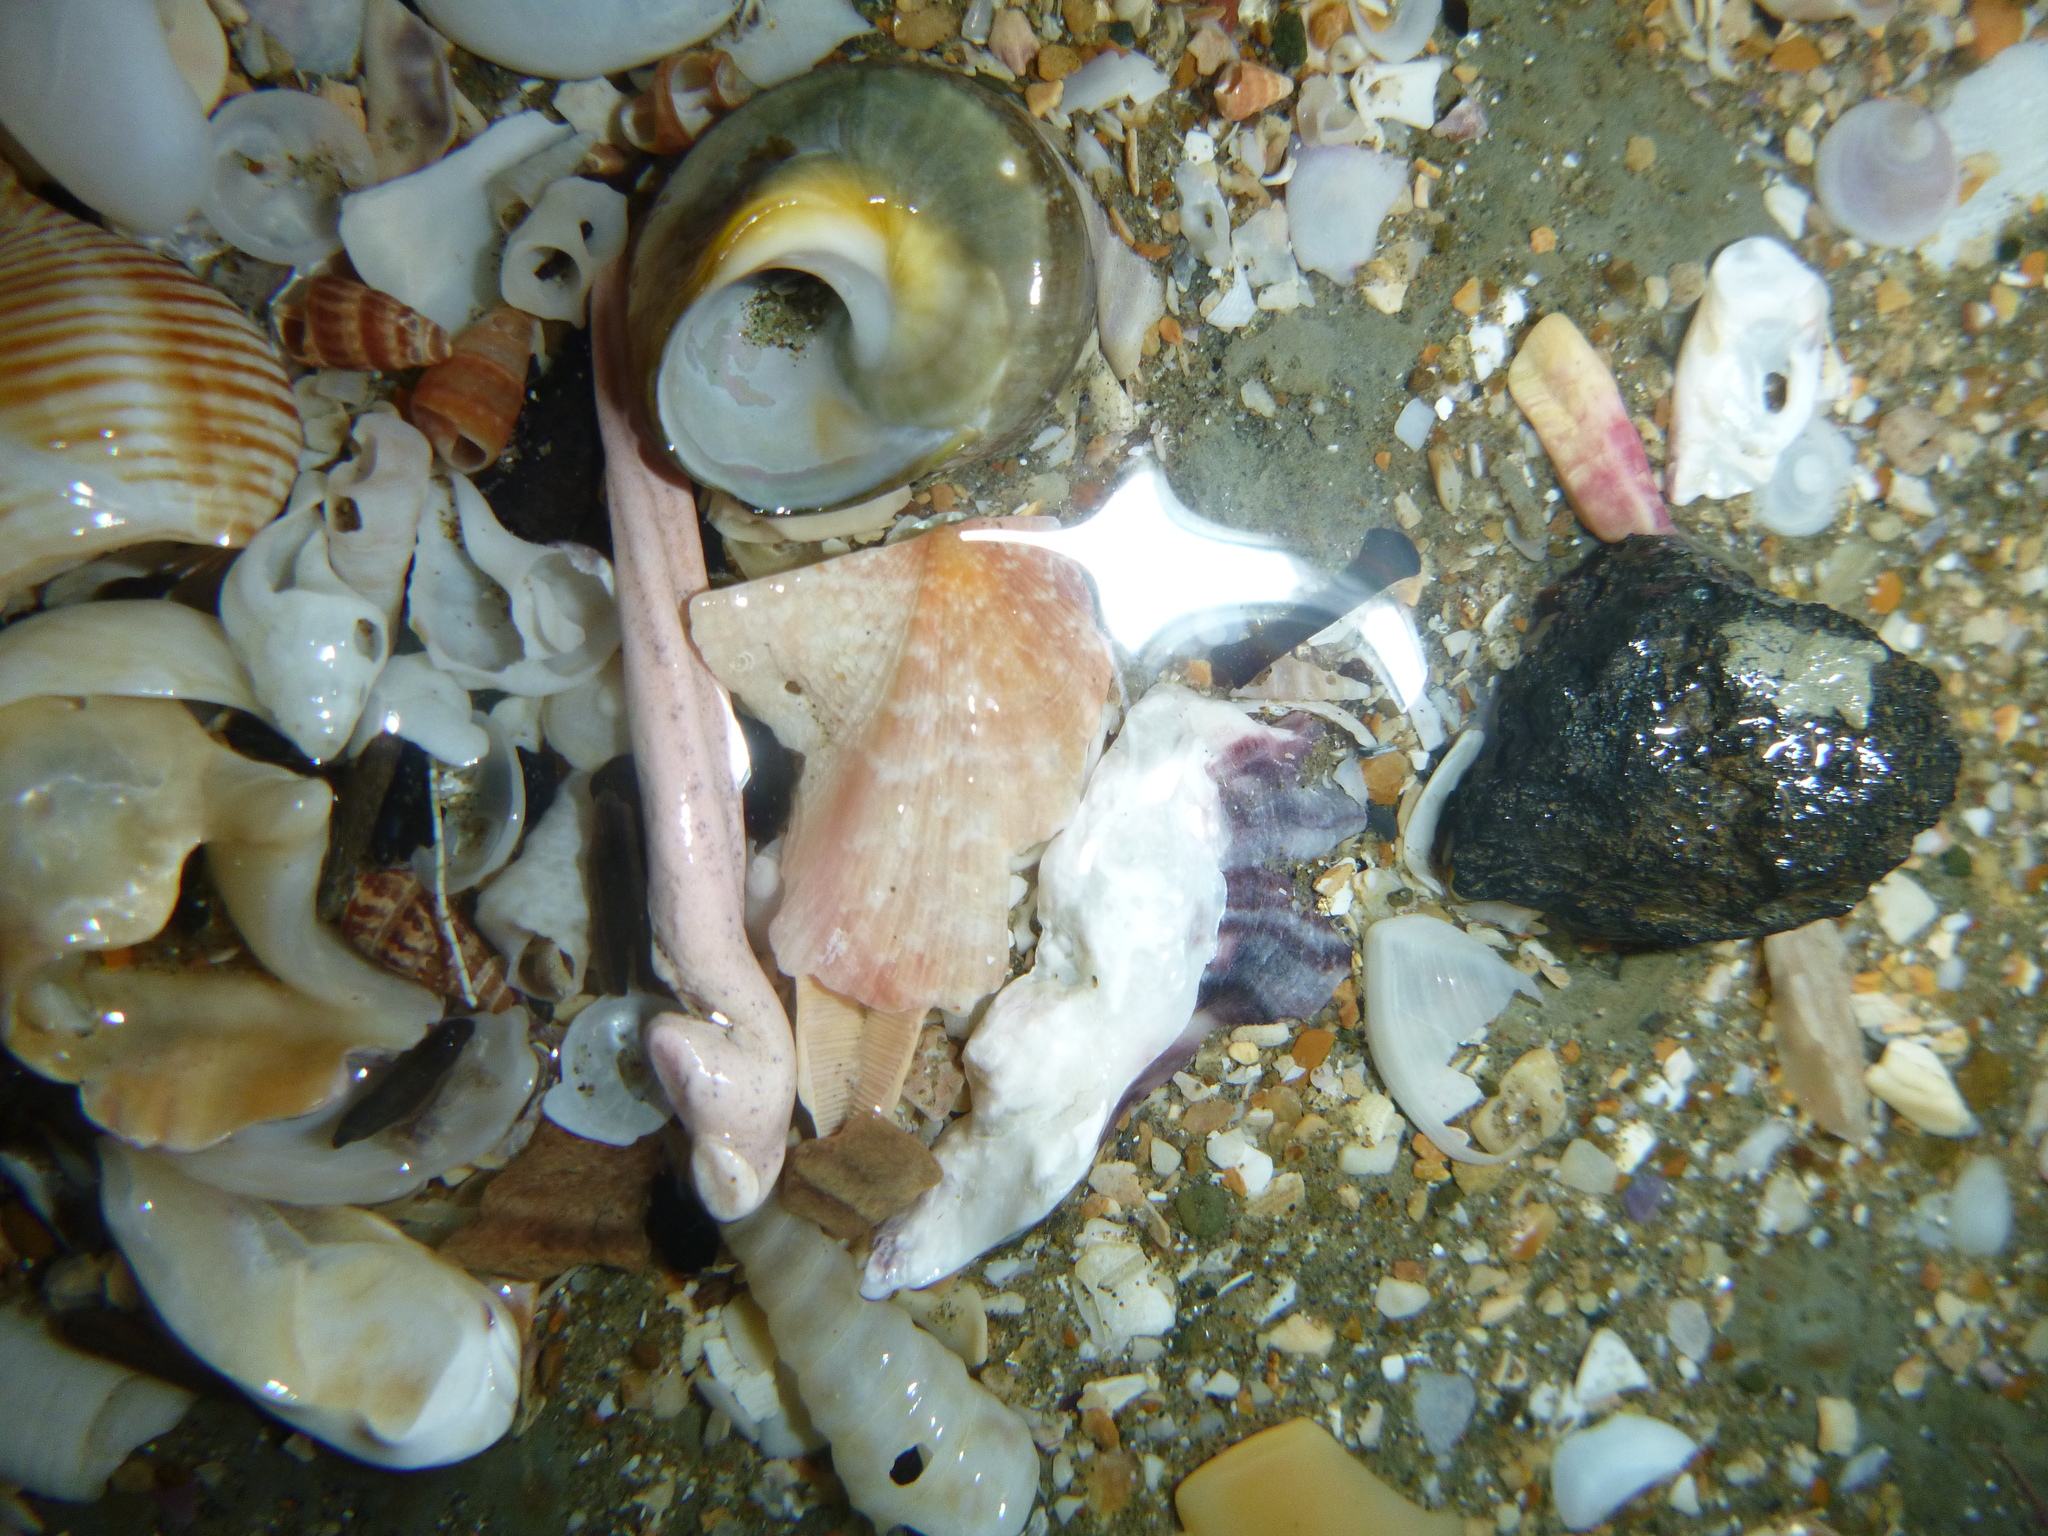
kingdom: Animalia
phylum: Mollusca
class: Gastropoda
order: Trochida
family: Turbinidae
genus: Lunella
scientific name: Lunella smaragda
